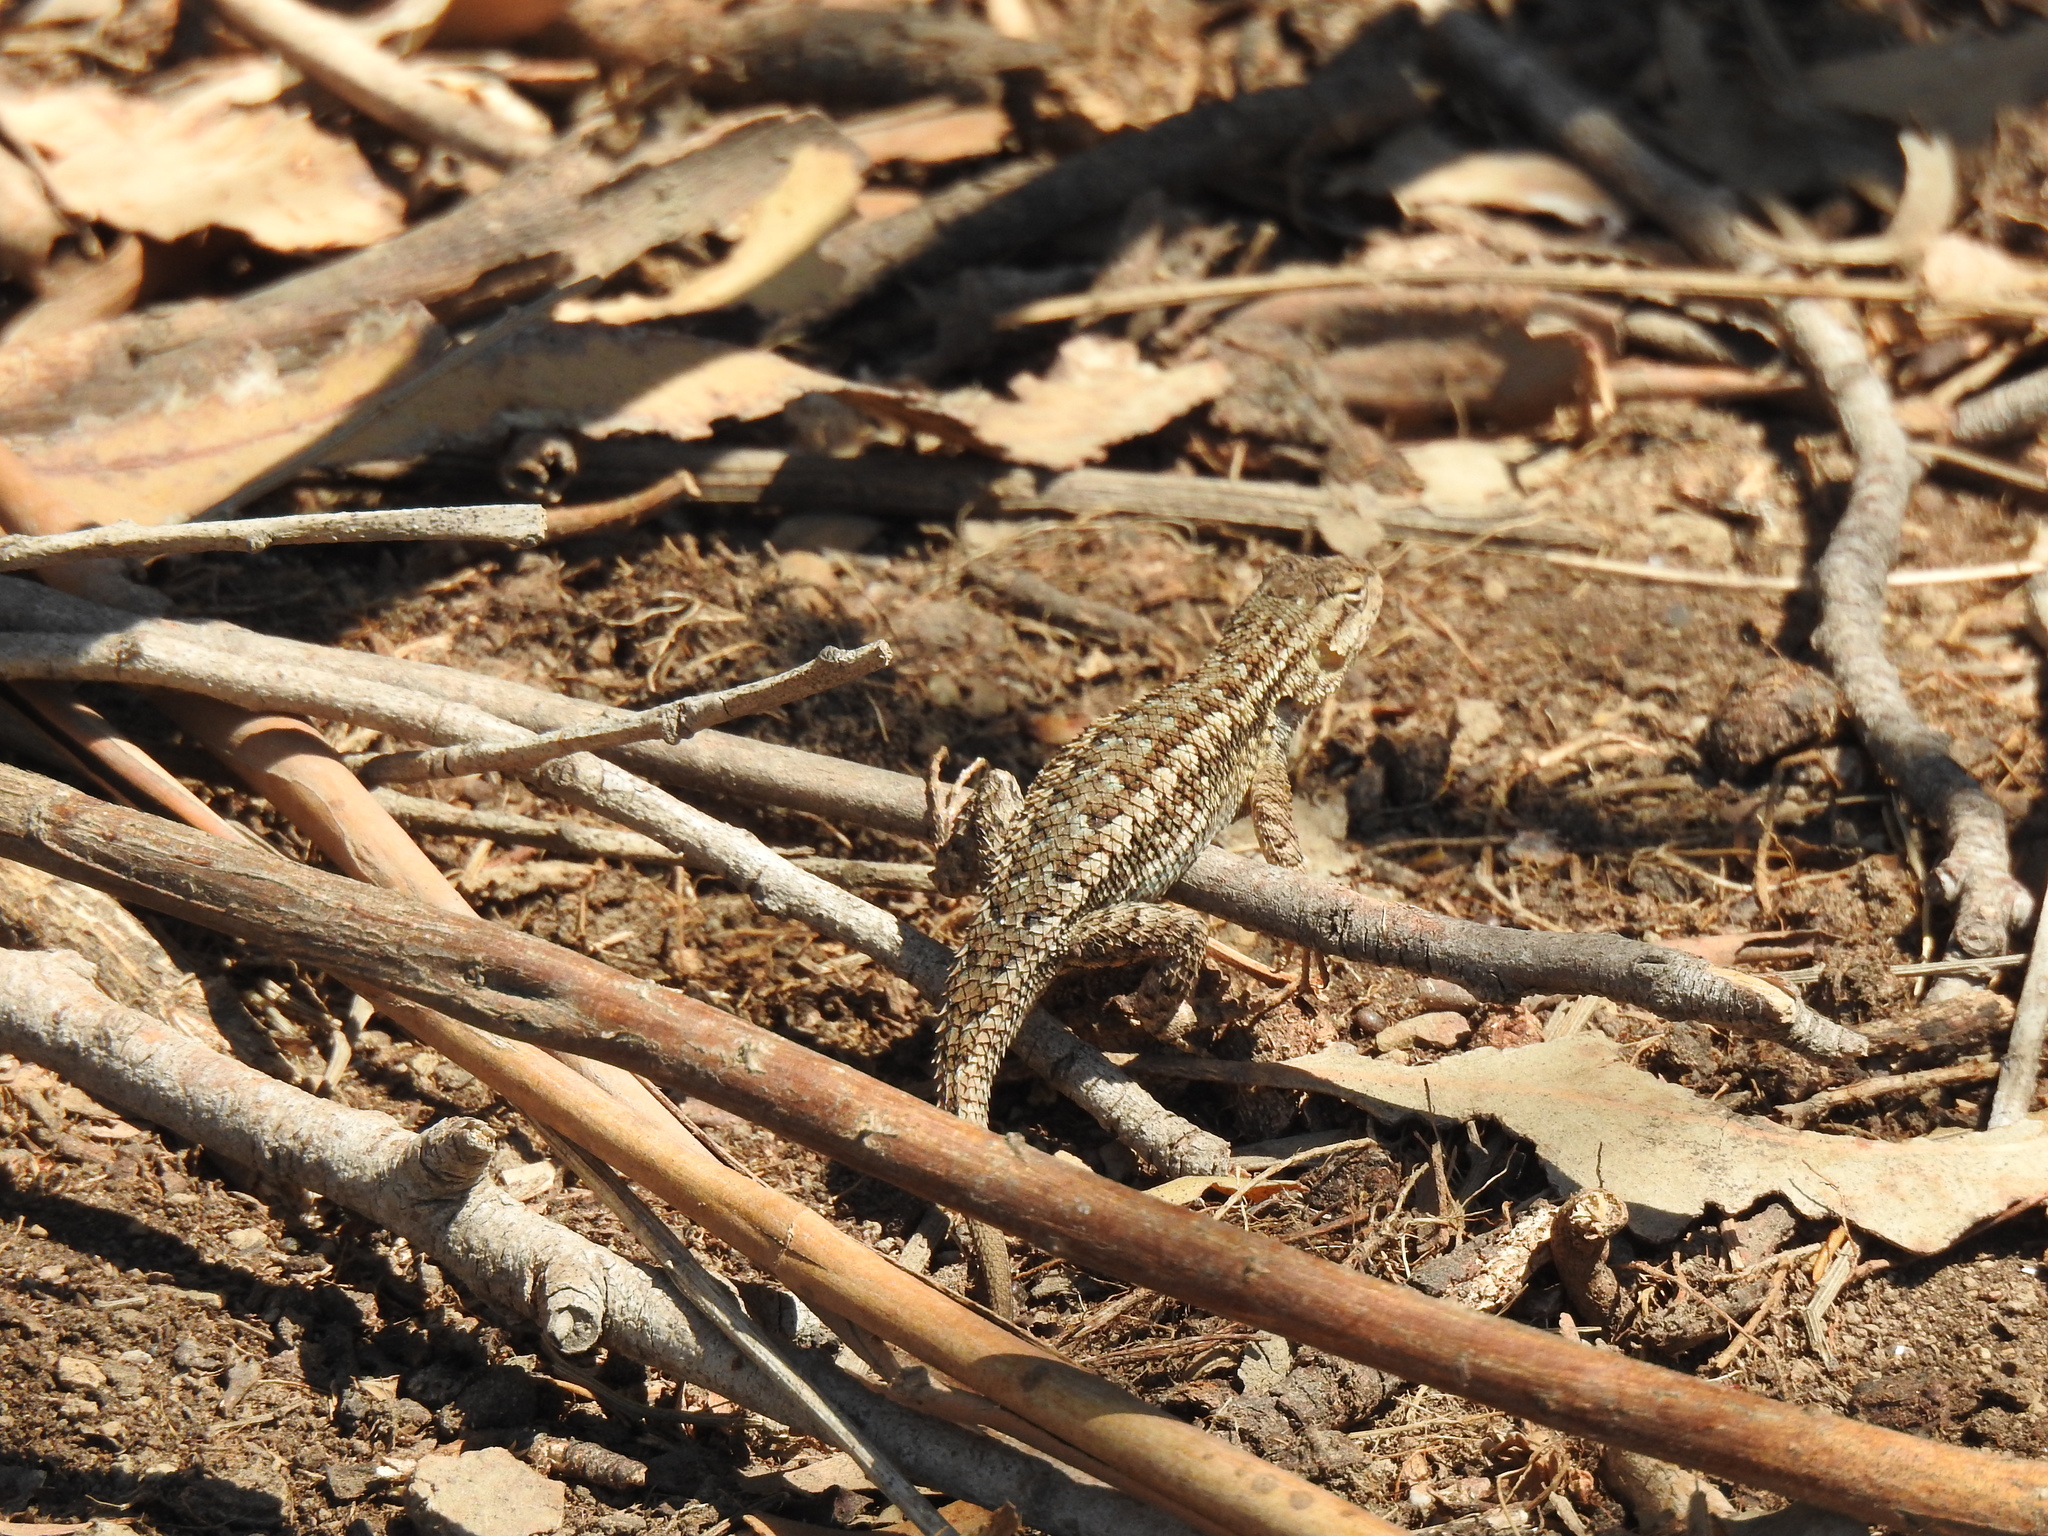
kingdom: Animalia
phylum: Chordata
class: Squamata
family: Phrynosomatidae
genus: Sceloporus
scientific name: Sceloporus occidentalis
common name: Western fence lizard
